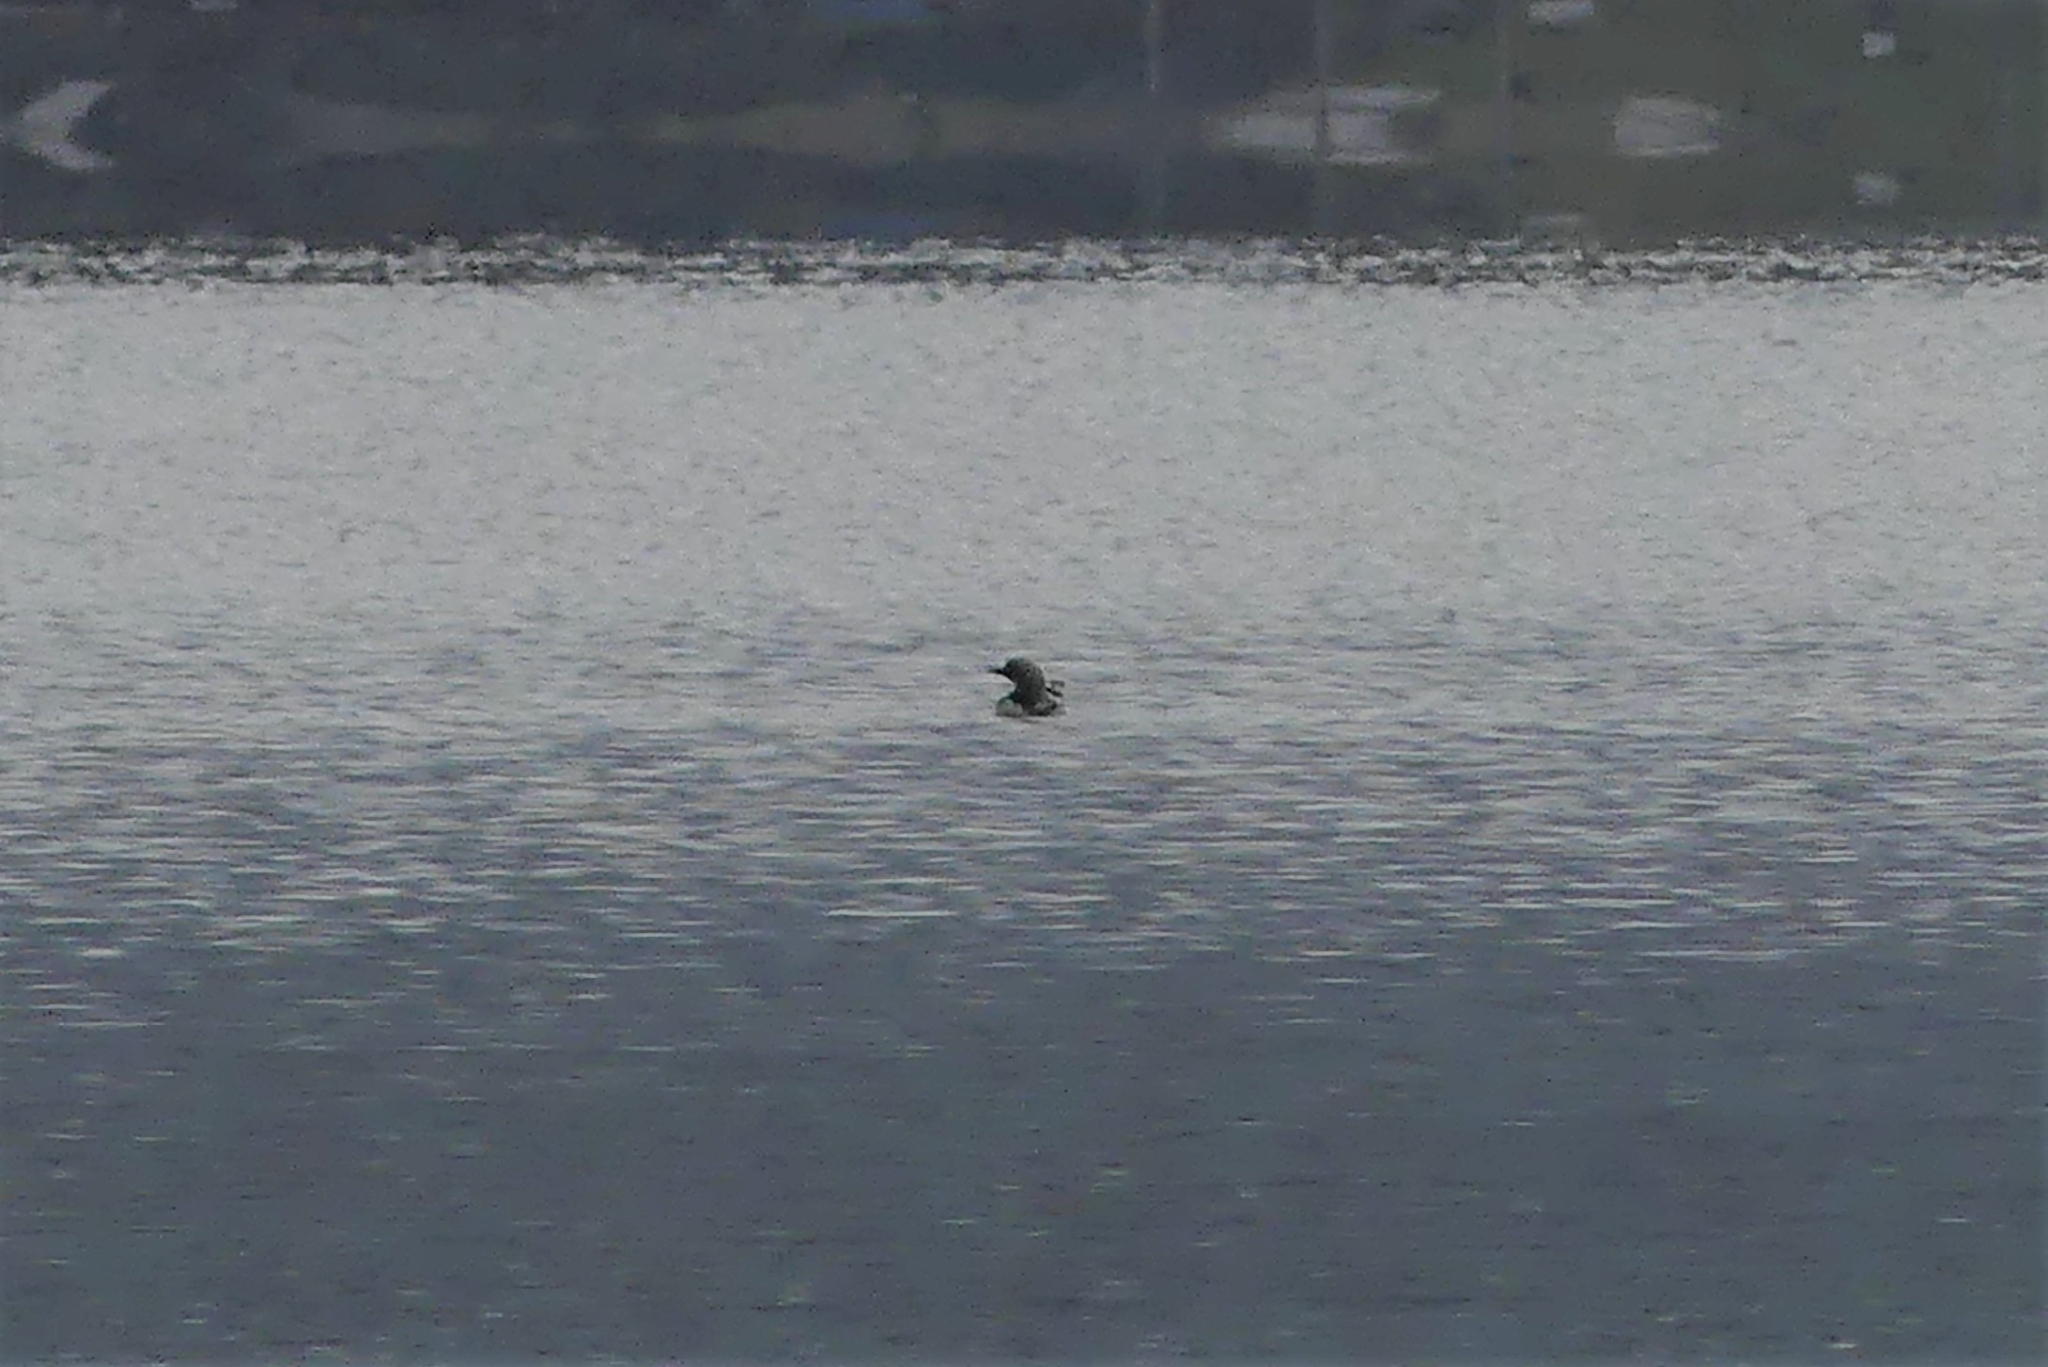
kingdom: Animalia
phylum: Chordata
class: Aves
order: Gaviiformes
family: Gaviidae
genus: Gavia
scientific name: Gavia pacifica
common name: Pacific loon
